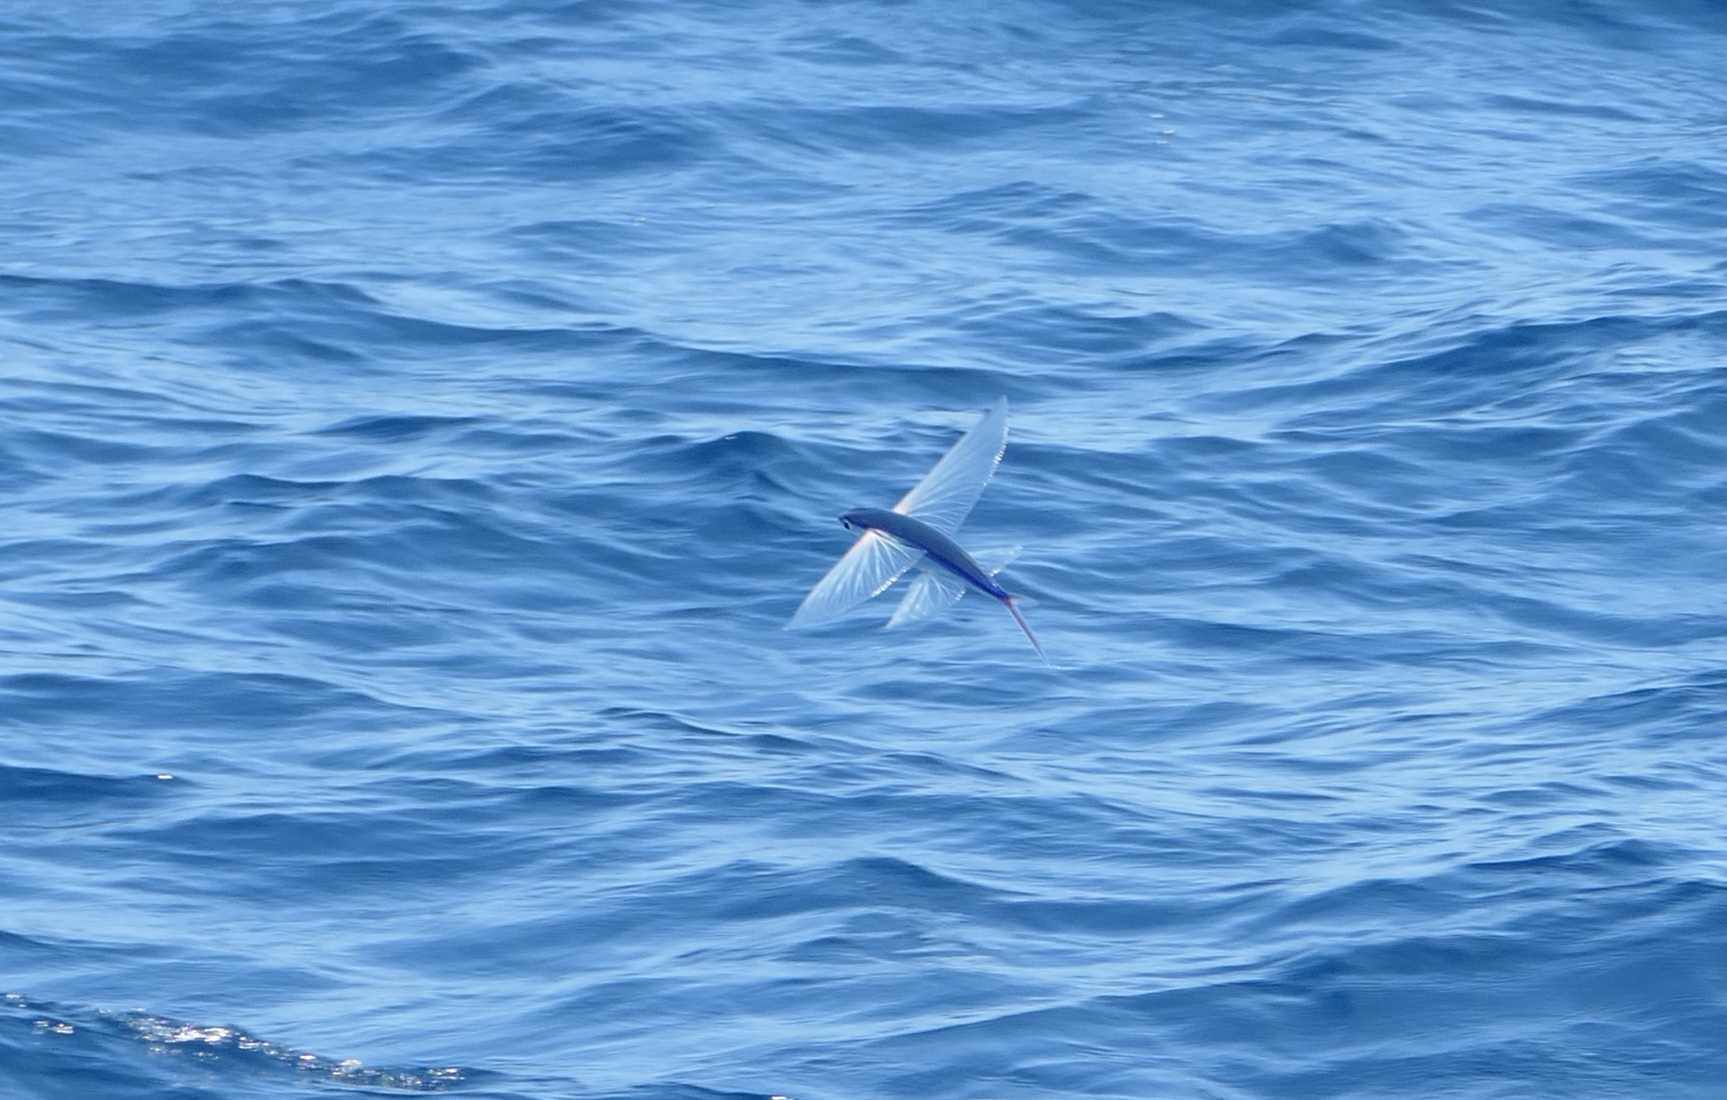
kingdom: Animalia
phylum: Chordata
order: Beloniformes
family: Exocoetidae
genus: Cypselurus
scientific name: Cypselurus comatus
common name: Clearwing flyingfish
